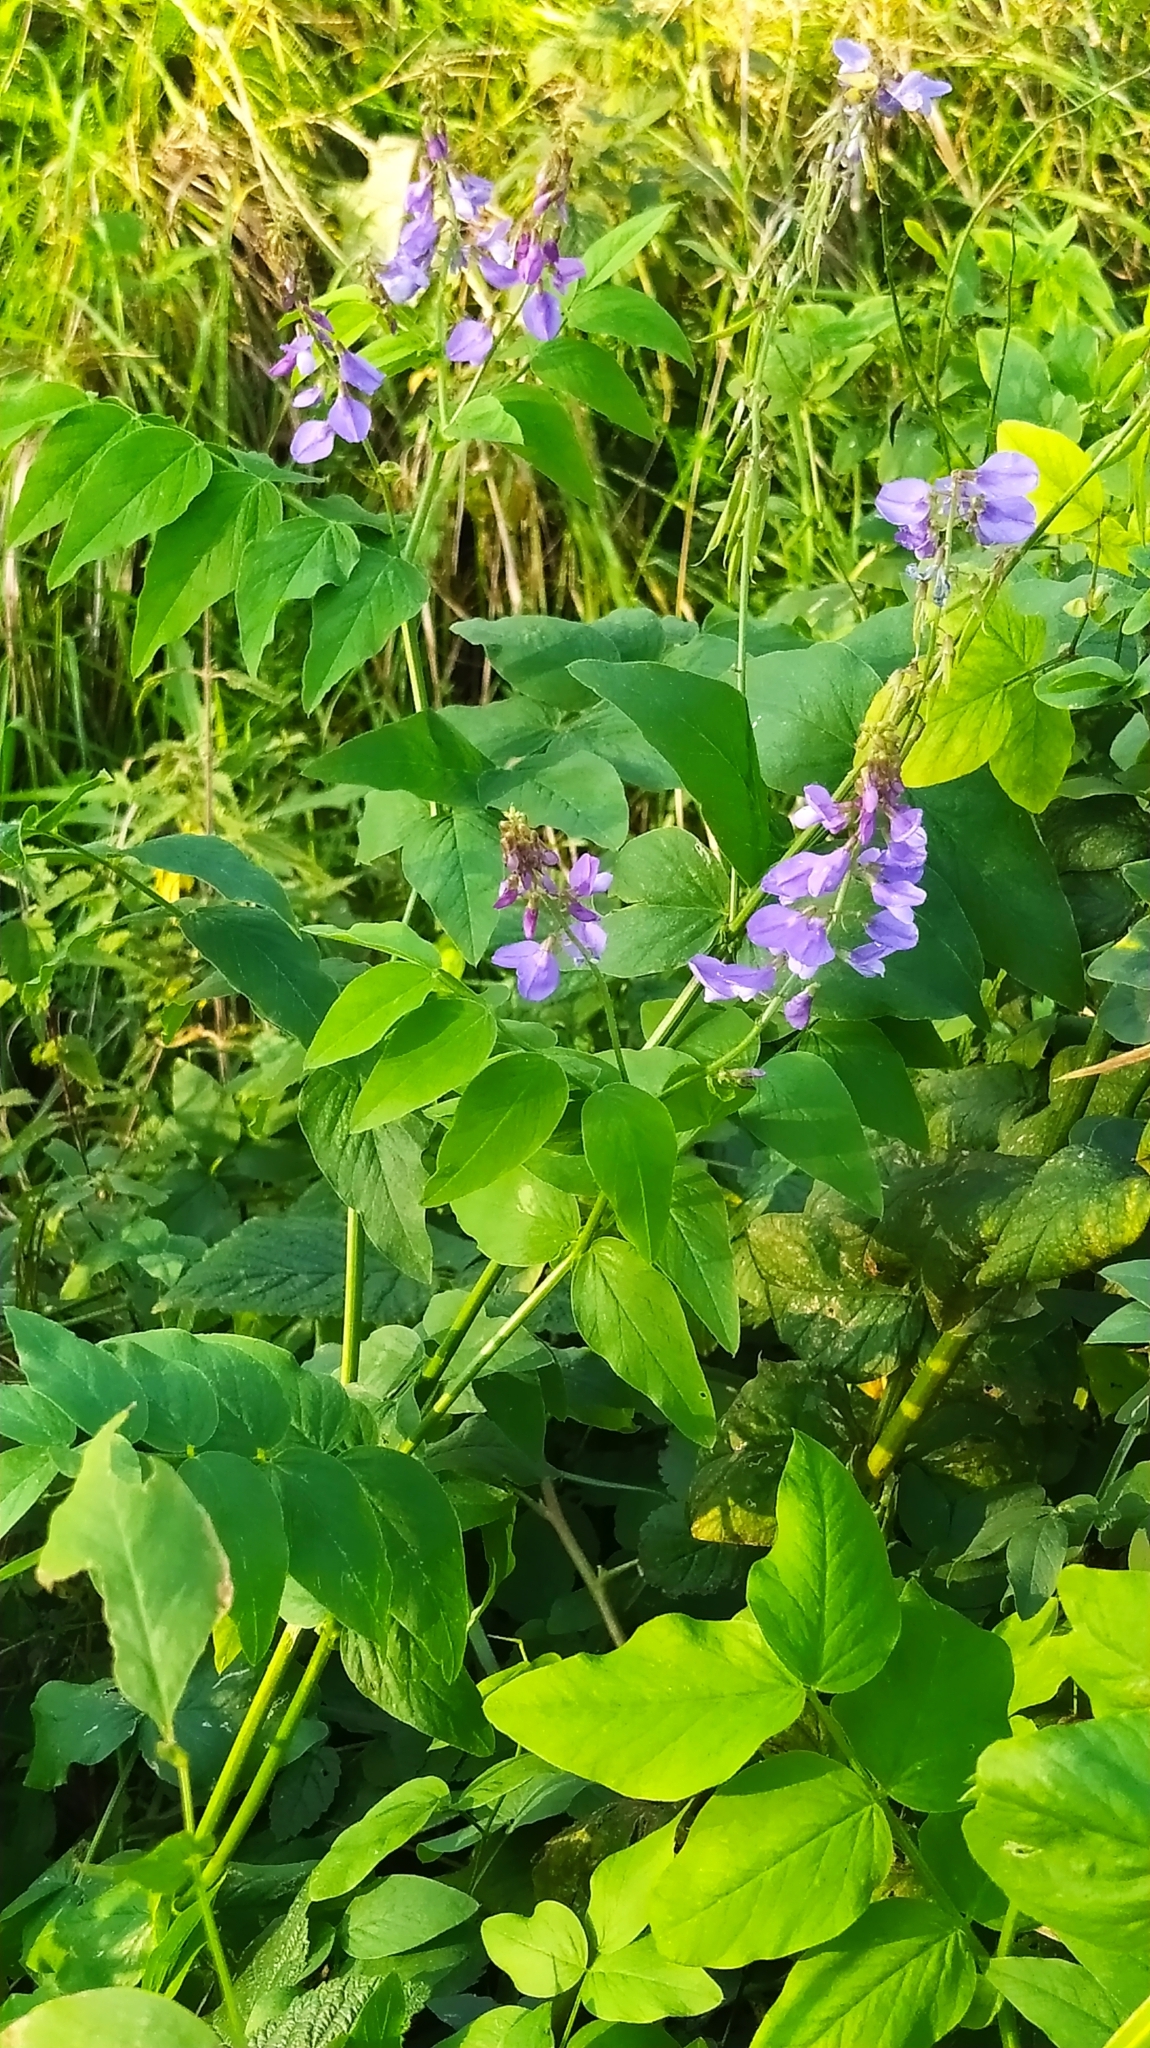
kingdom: Plantae
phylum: Tracheophyta
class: Magnoliopsida
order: Fabales
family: Fabaceae
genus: Galega
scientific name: Galega orientalis
